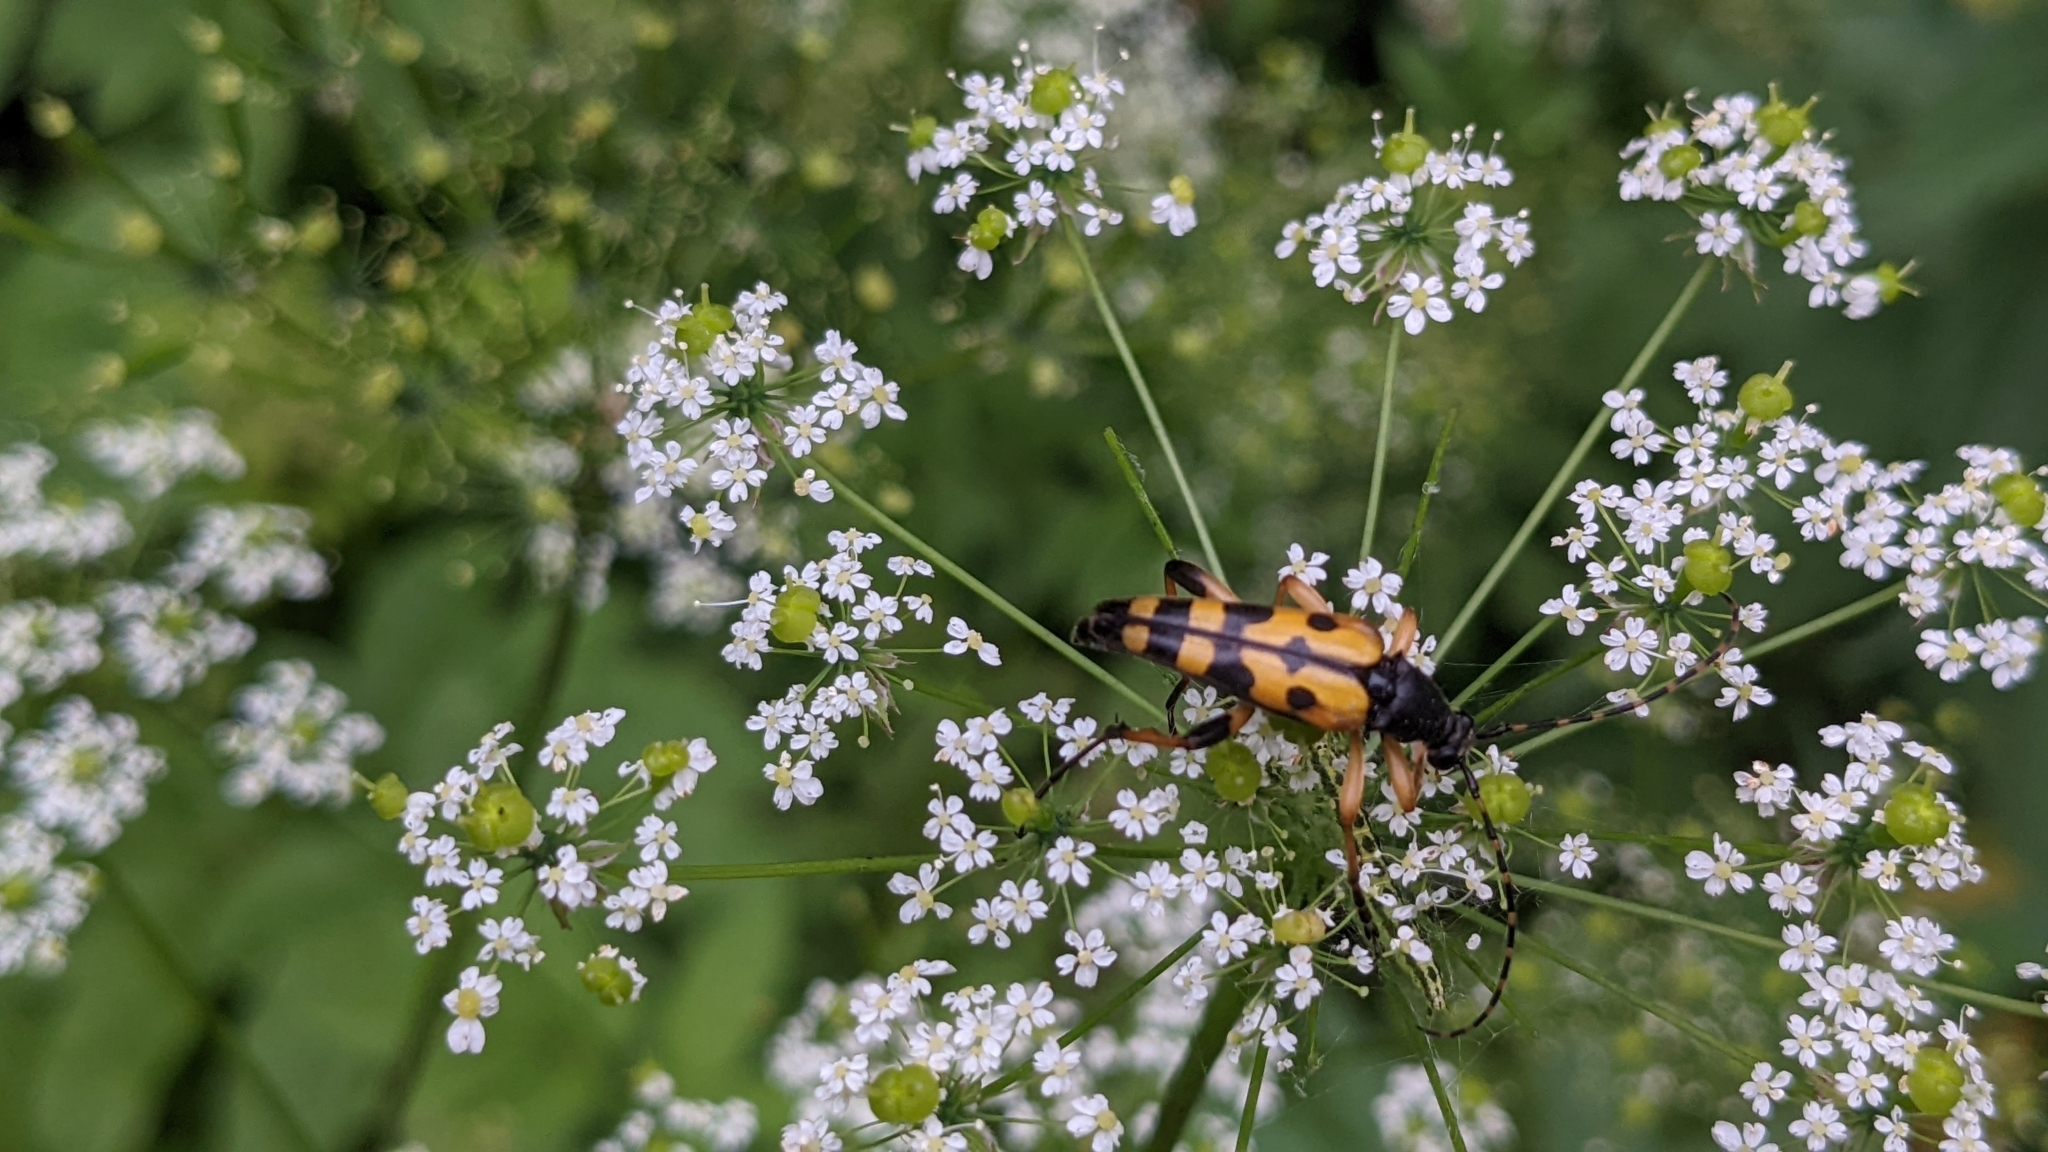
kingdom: Animalia
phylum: Arthropoda
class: Insecta
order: Coleoptera
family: Cerambycidae
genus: Rutpela
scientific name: Rutpela maculata
